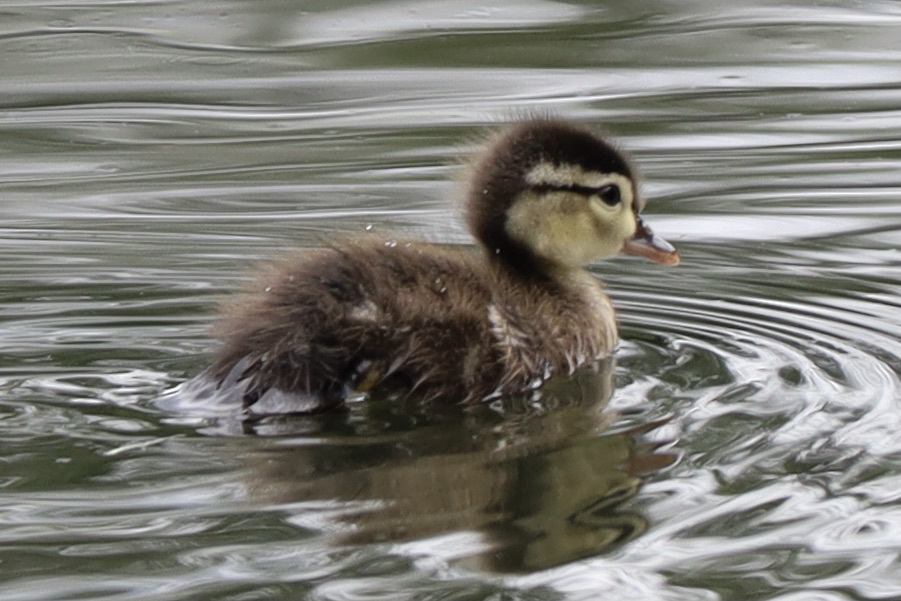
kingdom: Animalia
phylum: Chordata
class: Aves
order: Anseriformes
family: Anatidae
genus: Aix
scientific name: Aix sponsa
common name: Wood duck
